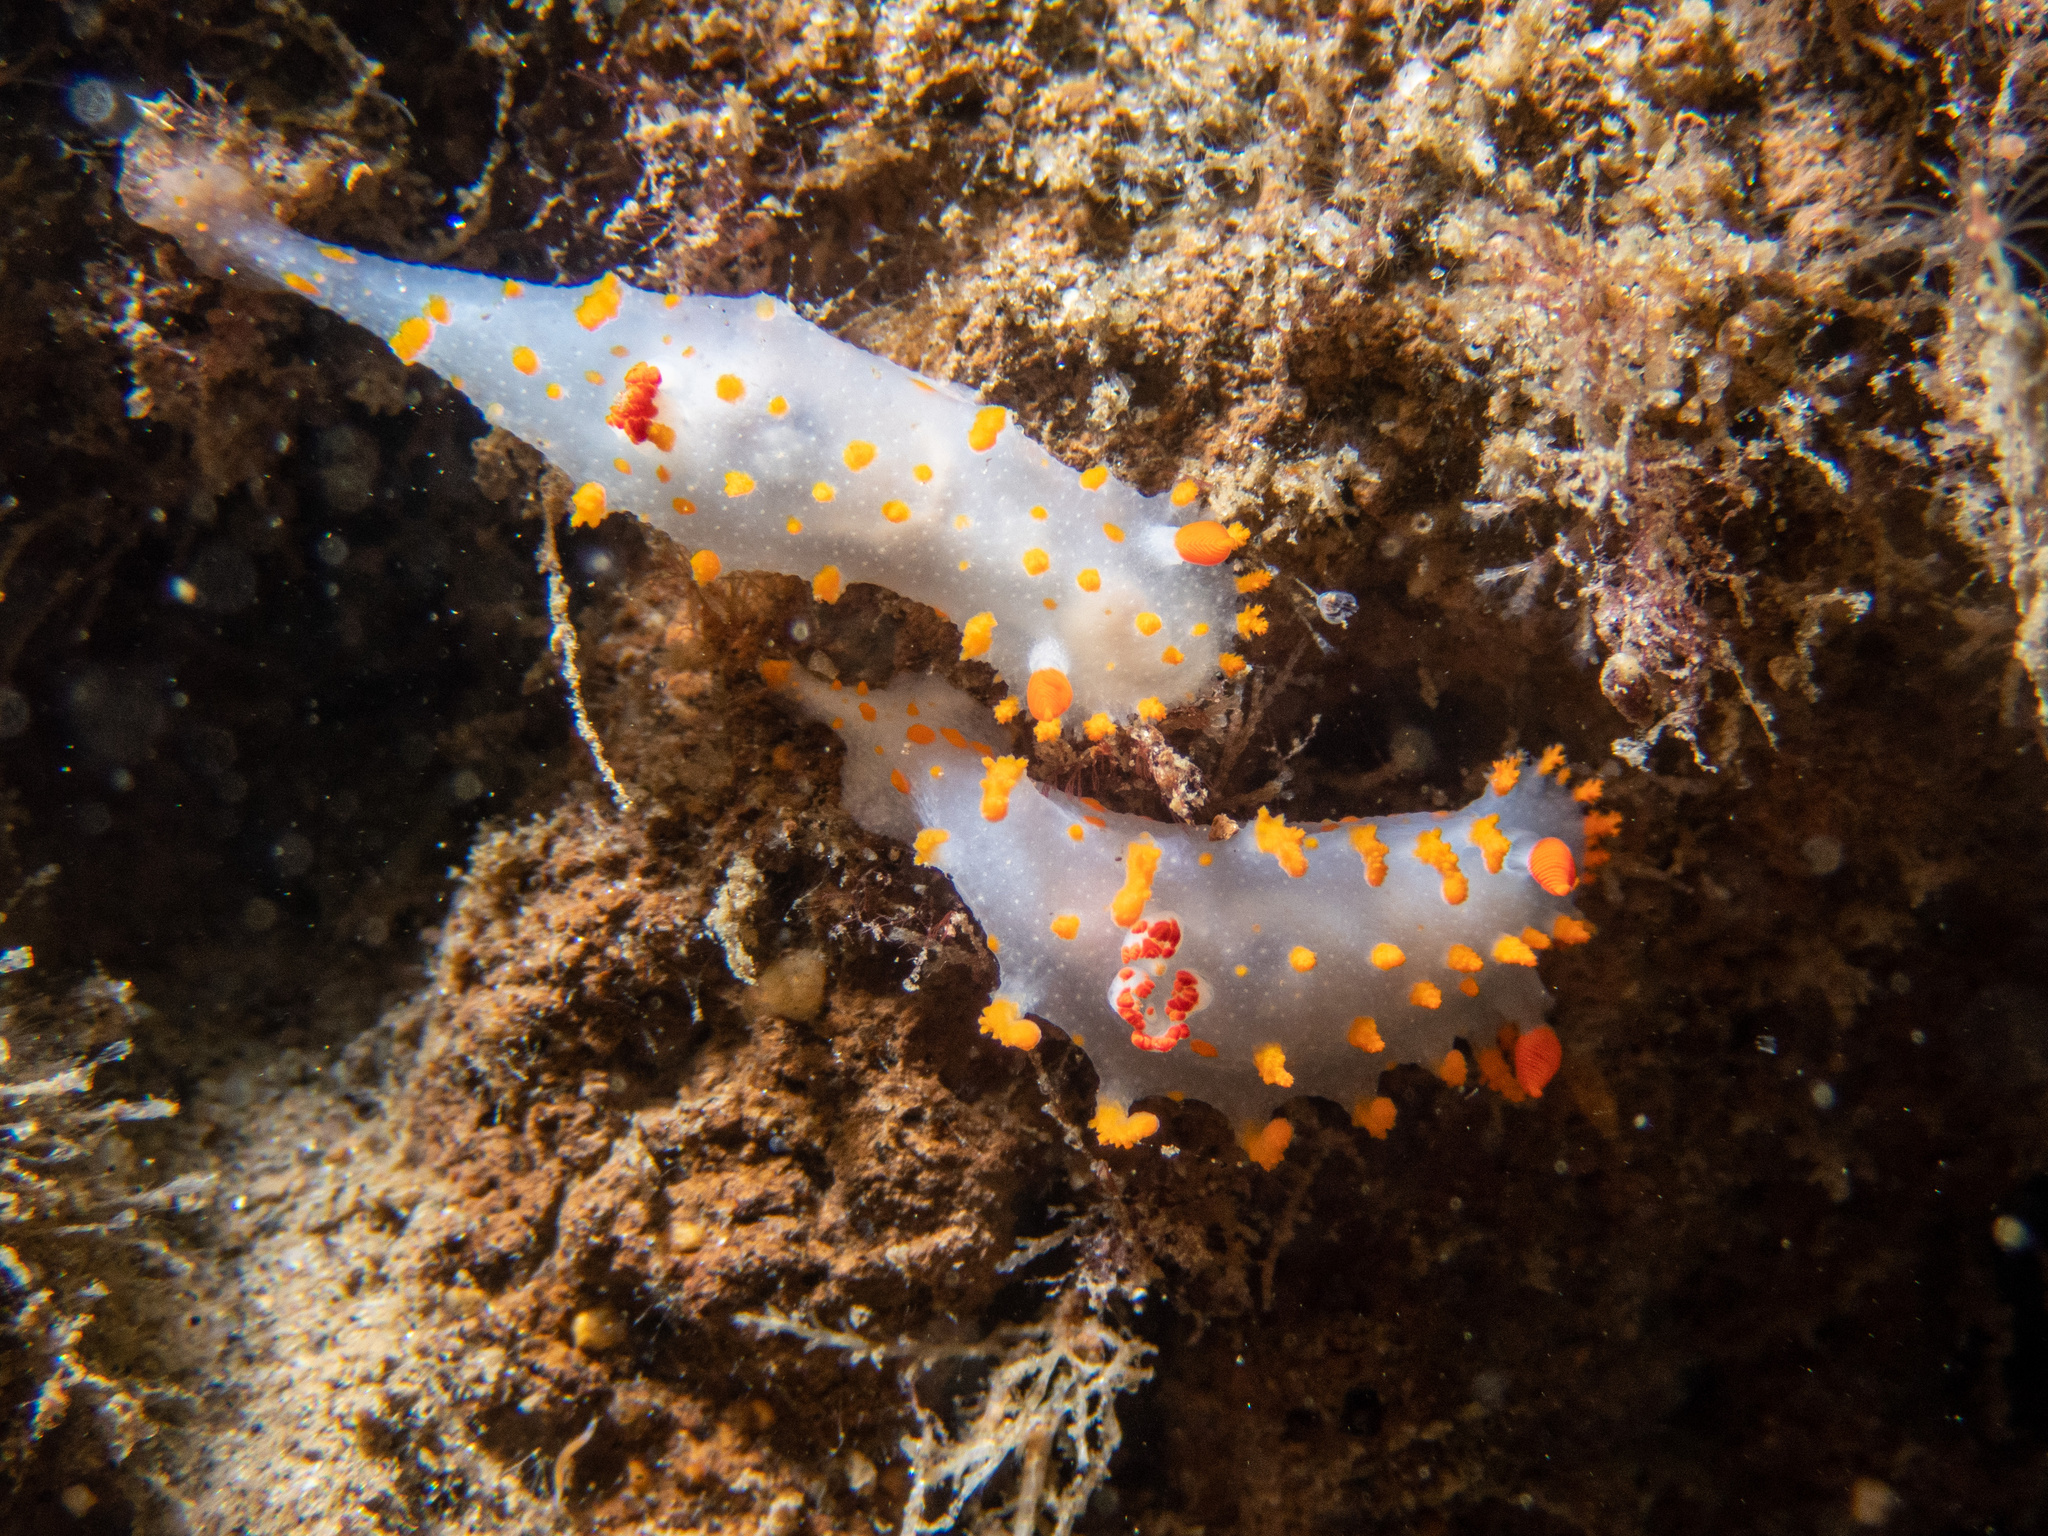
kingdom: Animalia
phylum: Mollusca
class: Gastropoda
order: Nudibranchia
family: Polyceridae
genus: Triopha
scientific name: Triopha catalinae
